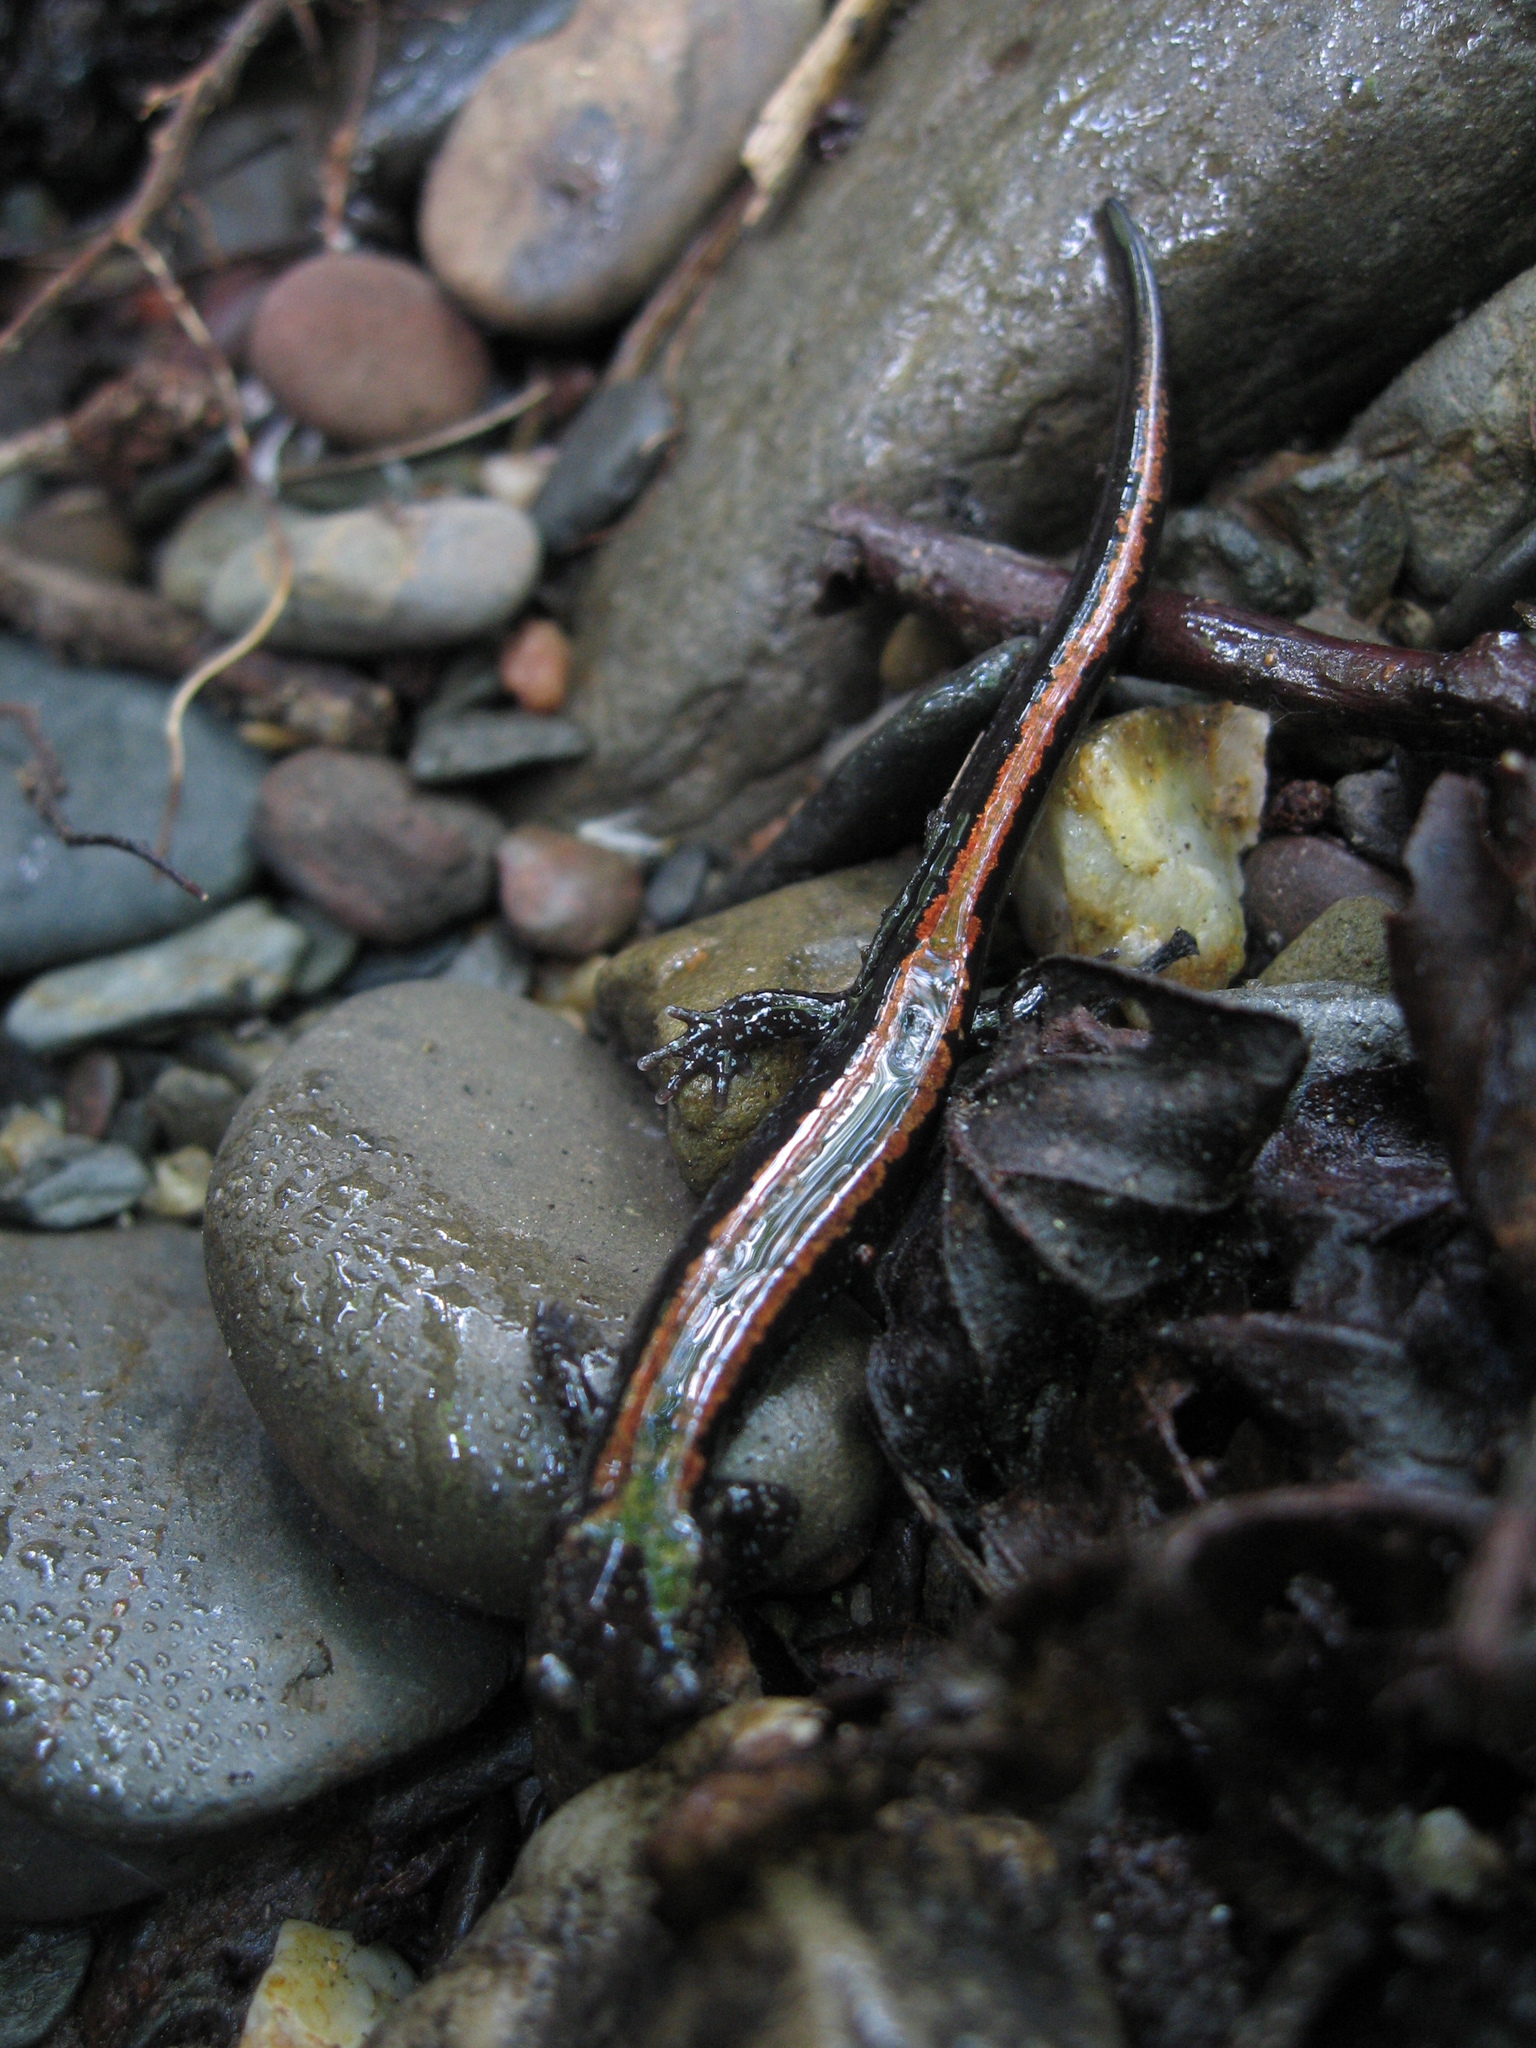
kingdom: Animalia
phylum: Chordata
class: Amphibia
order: Caudata
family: Salamandridae
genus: Chioglossa
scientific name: Chioglossa lusitanica
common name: Gold-striped salamander
